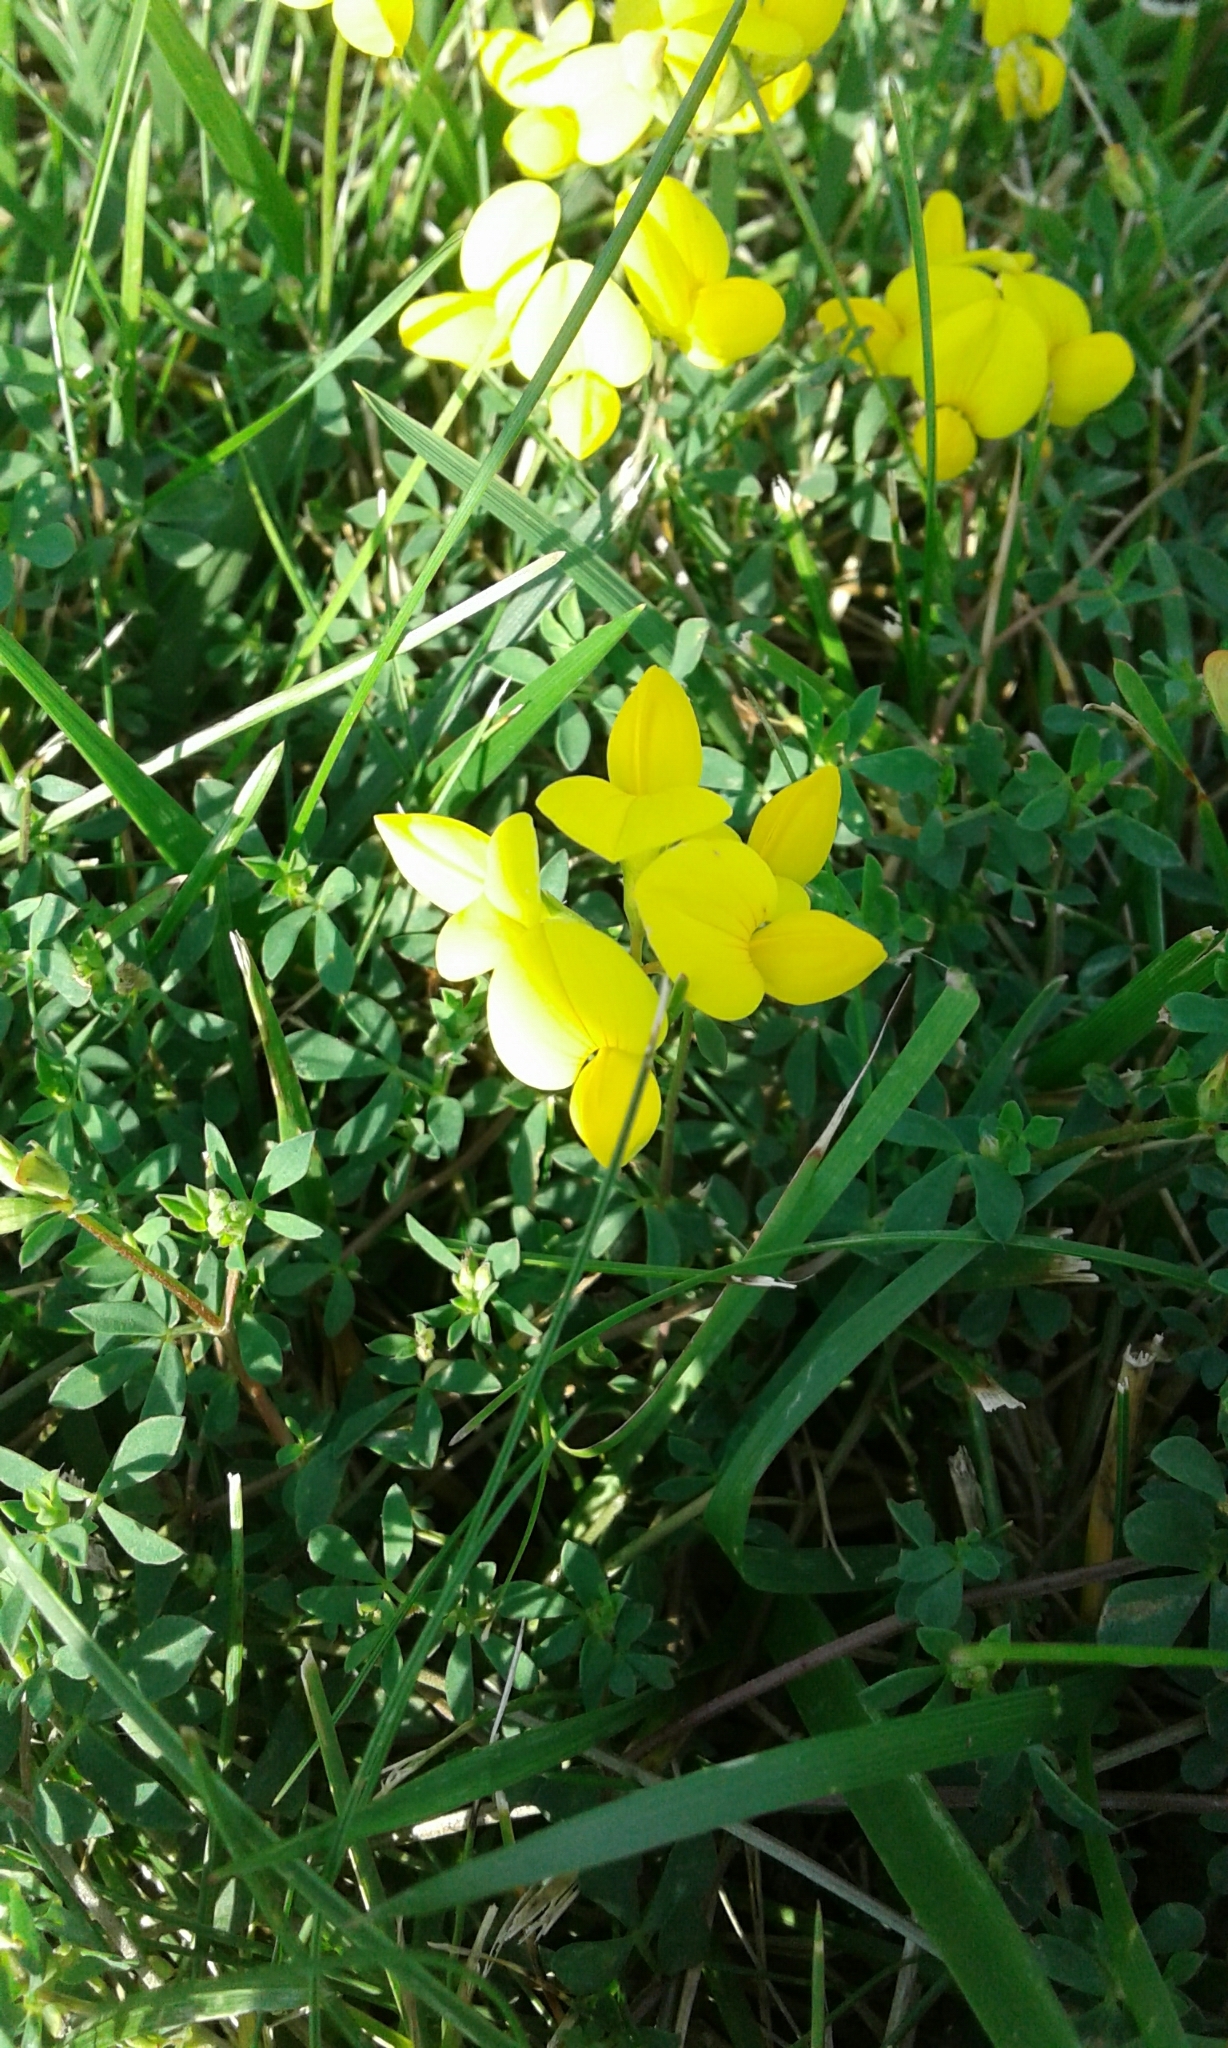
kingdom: Plantae
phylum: Tracheophyta
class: Magnoliopsida
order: Fabales
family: Fabaceae
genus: Lotus
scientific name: Lotus corniculatus
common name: Common bird's-foot-trefoil
